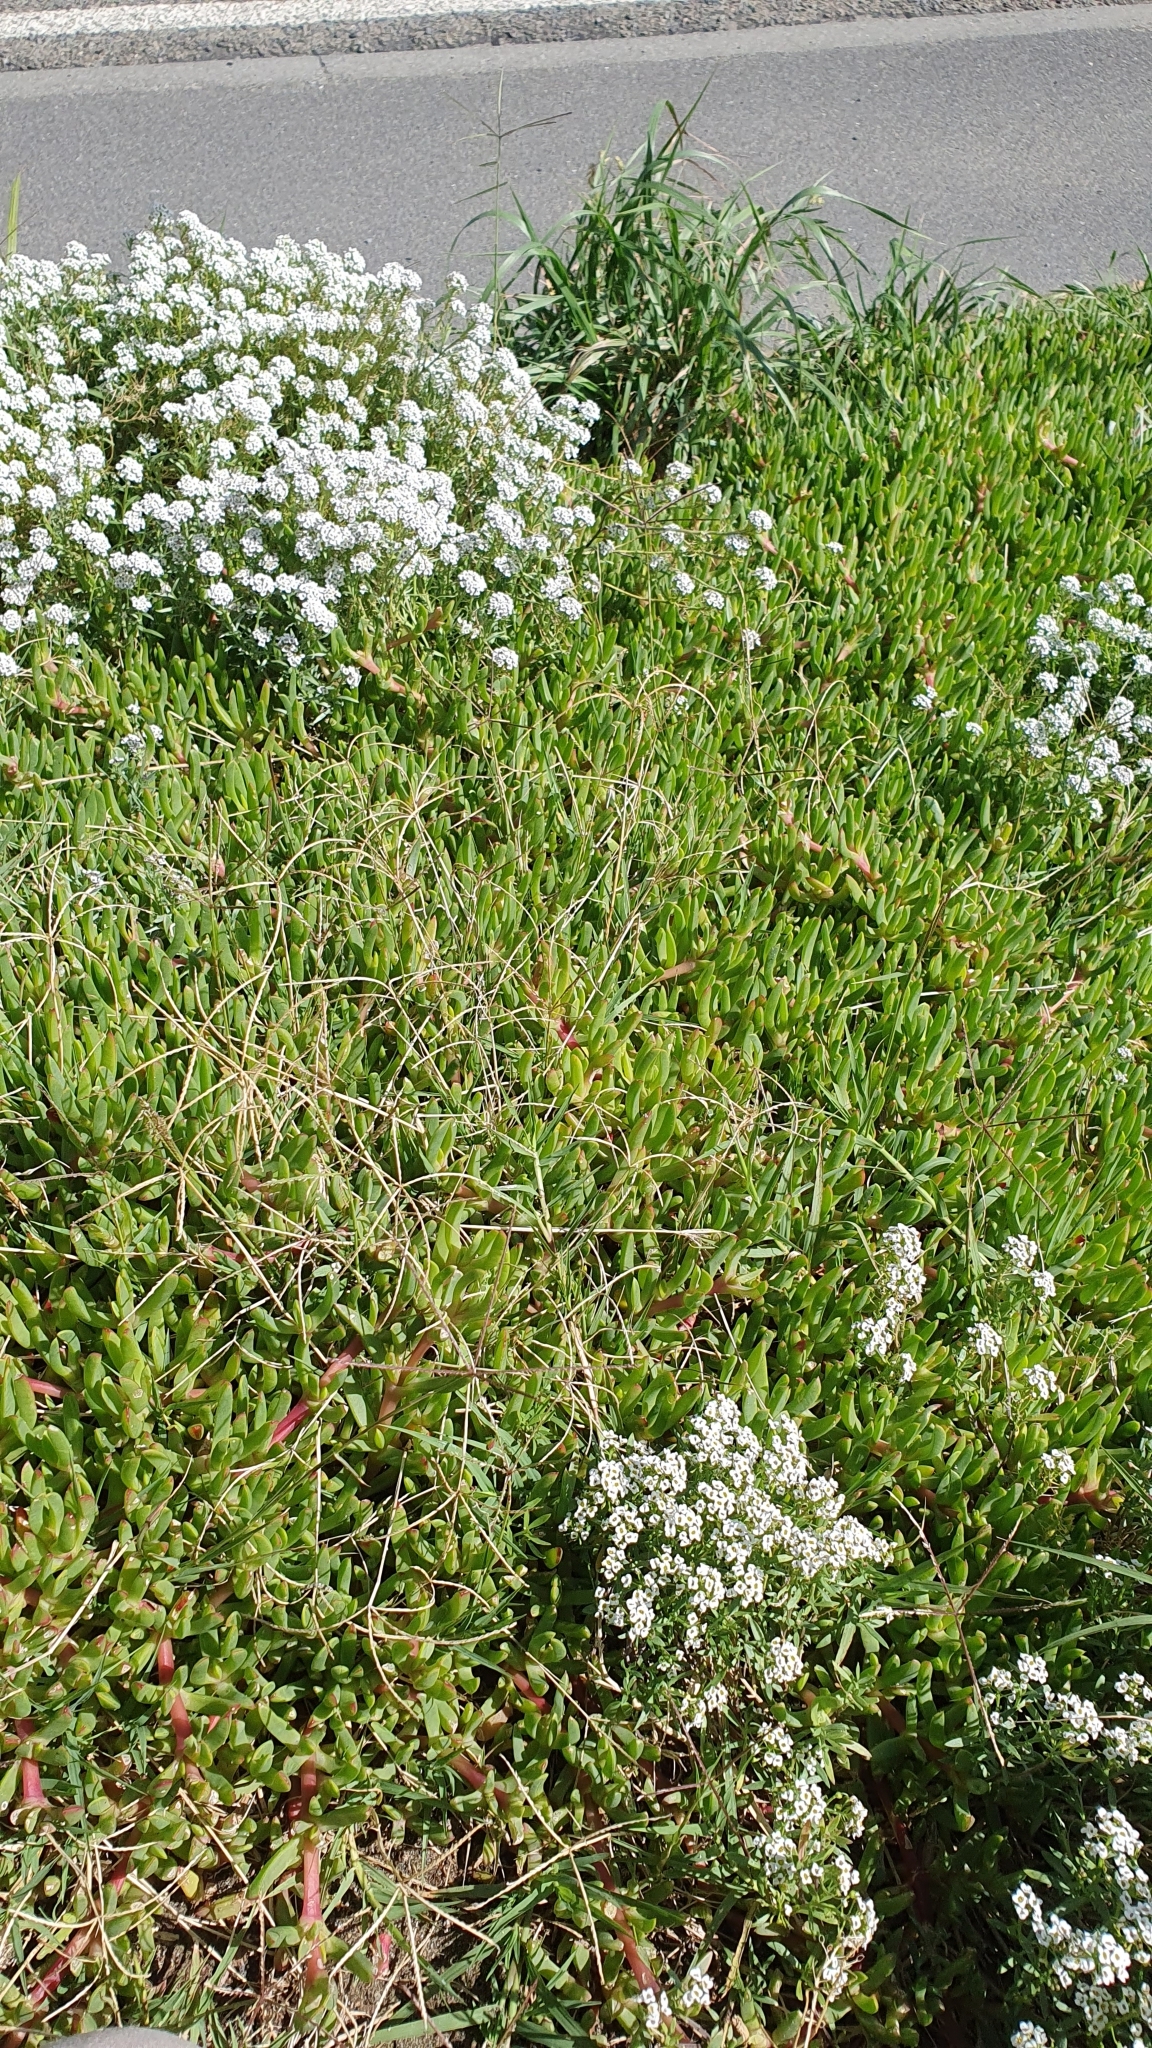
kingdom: Plantae
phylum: Tracheophyta
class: Magnoliopsida
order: Caryophyllales
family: Aizoaceae
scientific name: Aizoaceae
